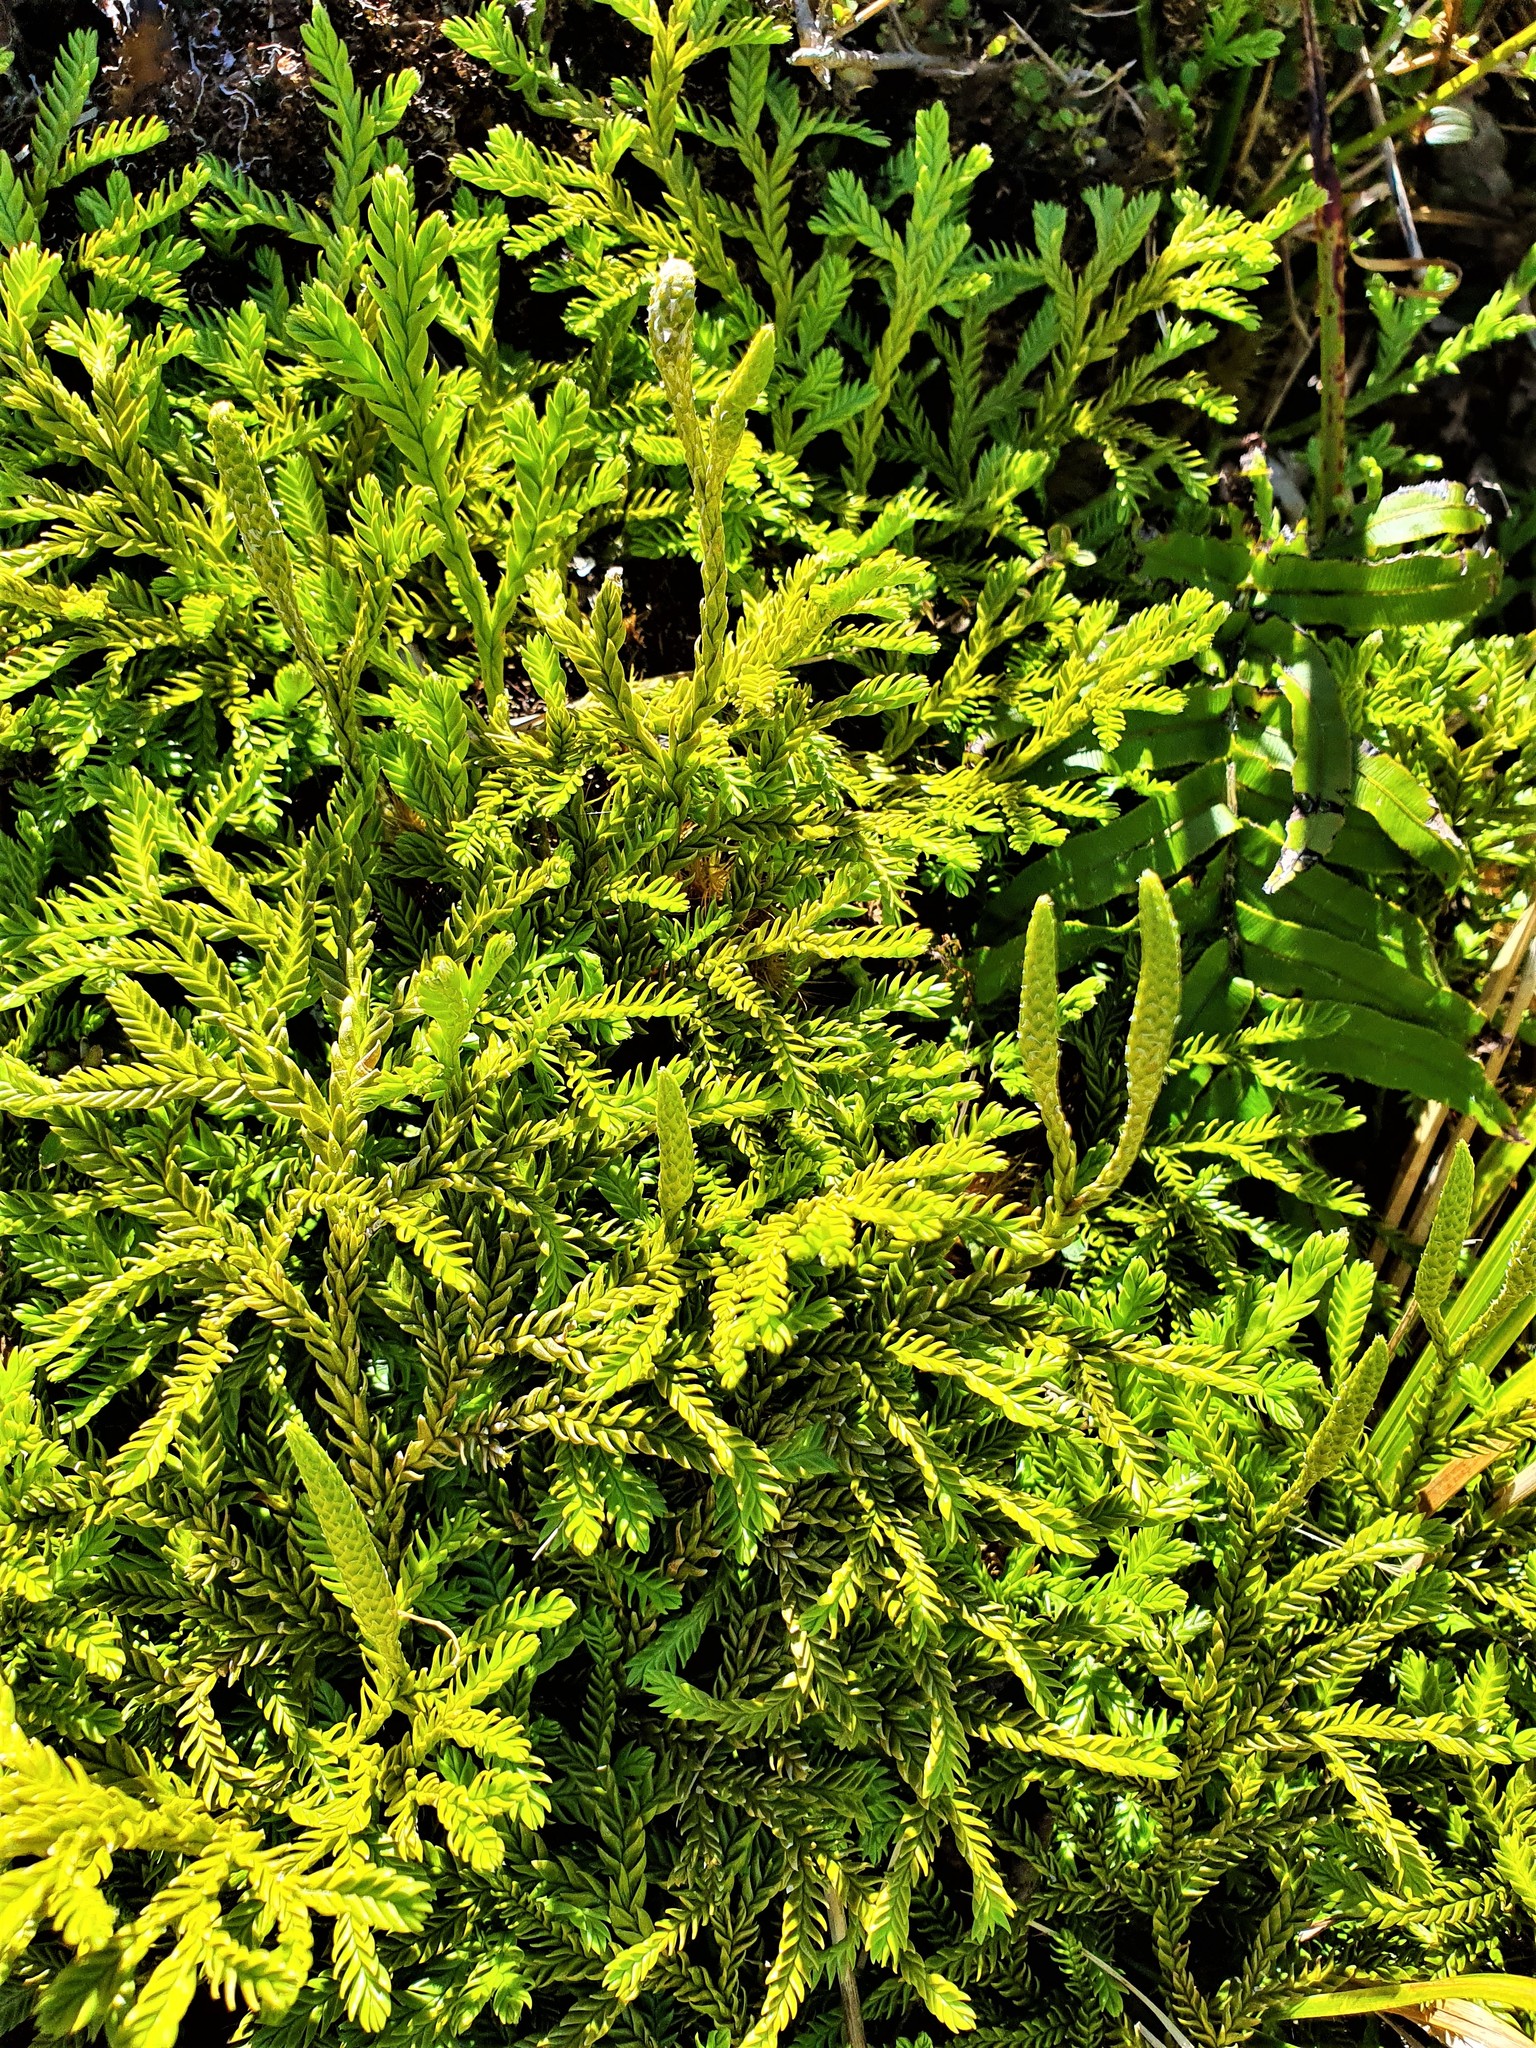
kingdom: Plantae
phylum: Tracheophyta
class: Lycopodiopsida
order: Lycopodiales
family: Lycopodiaceae
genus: Diphasium
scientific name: Diphasium scariosum
